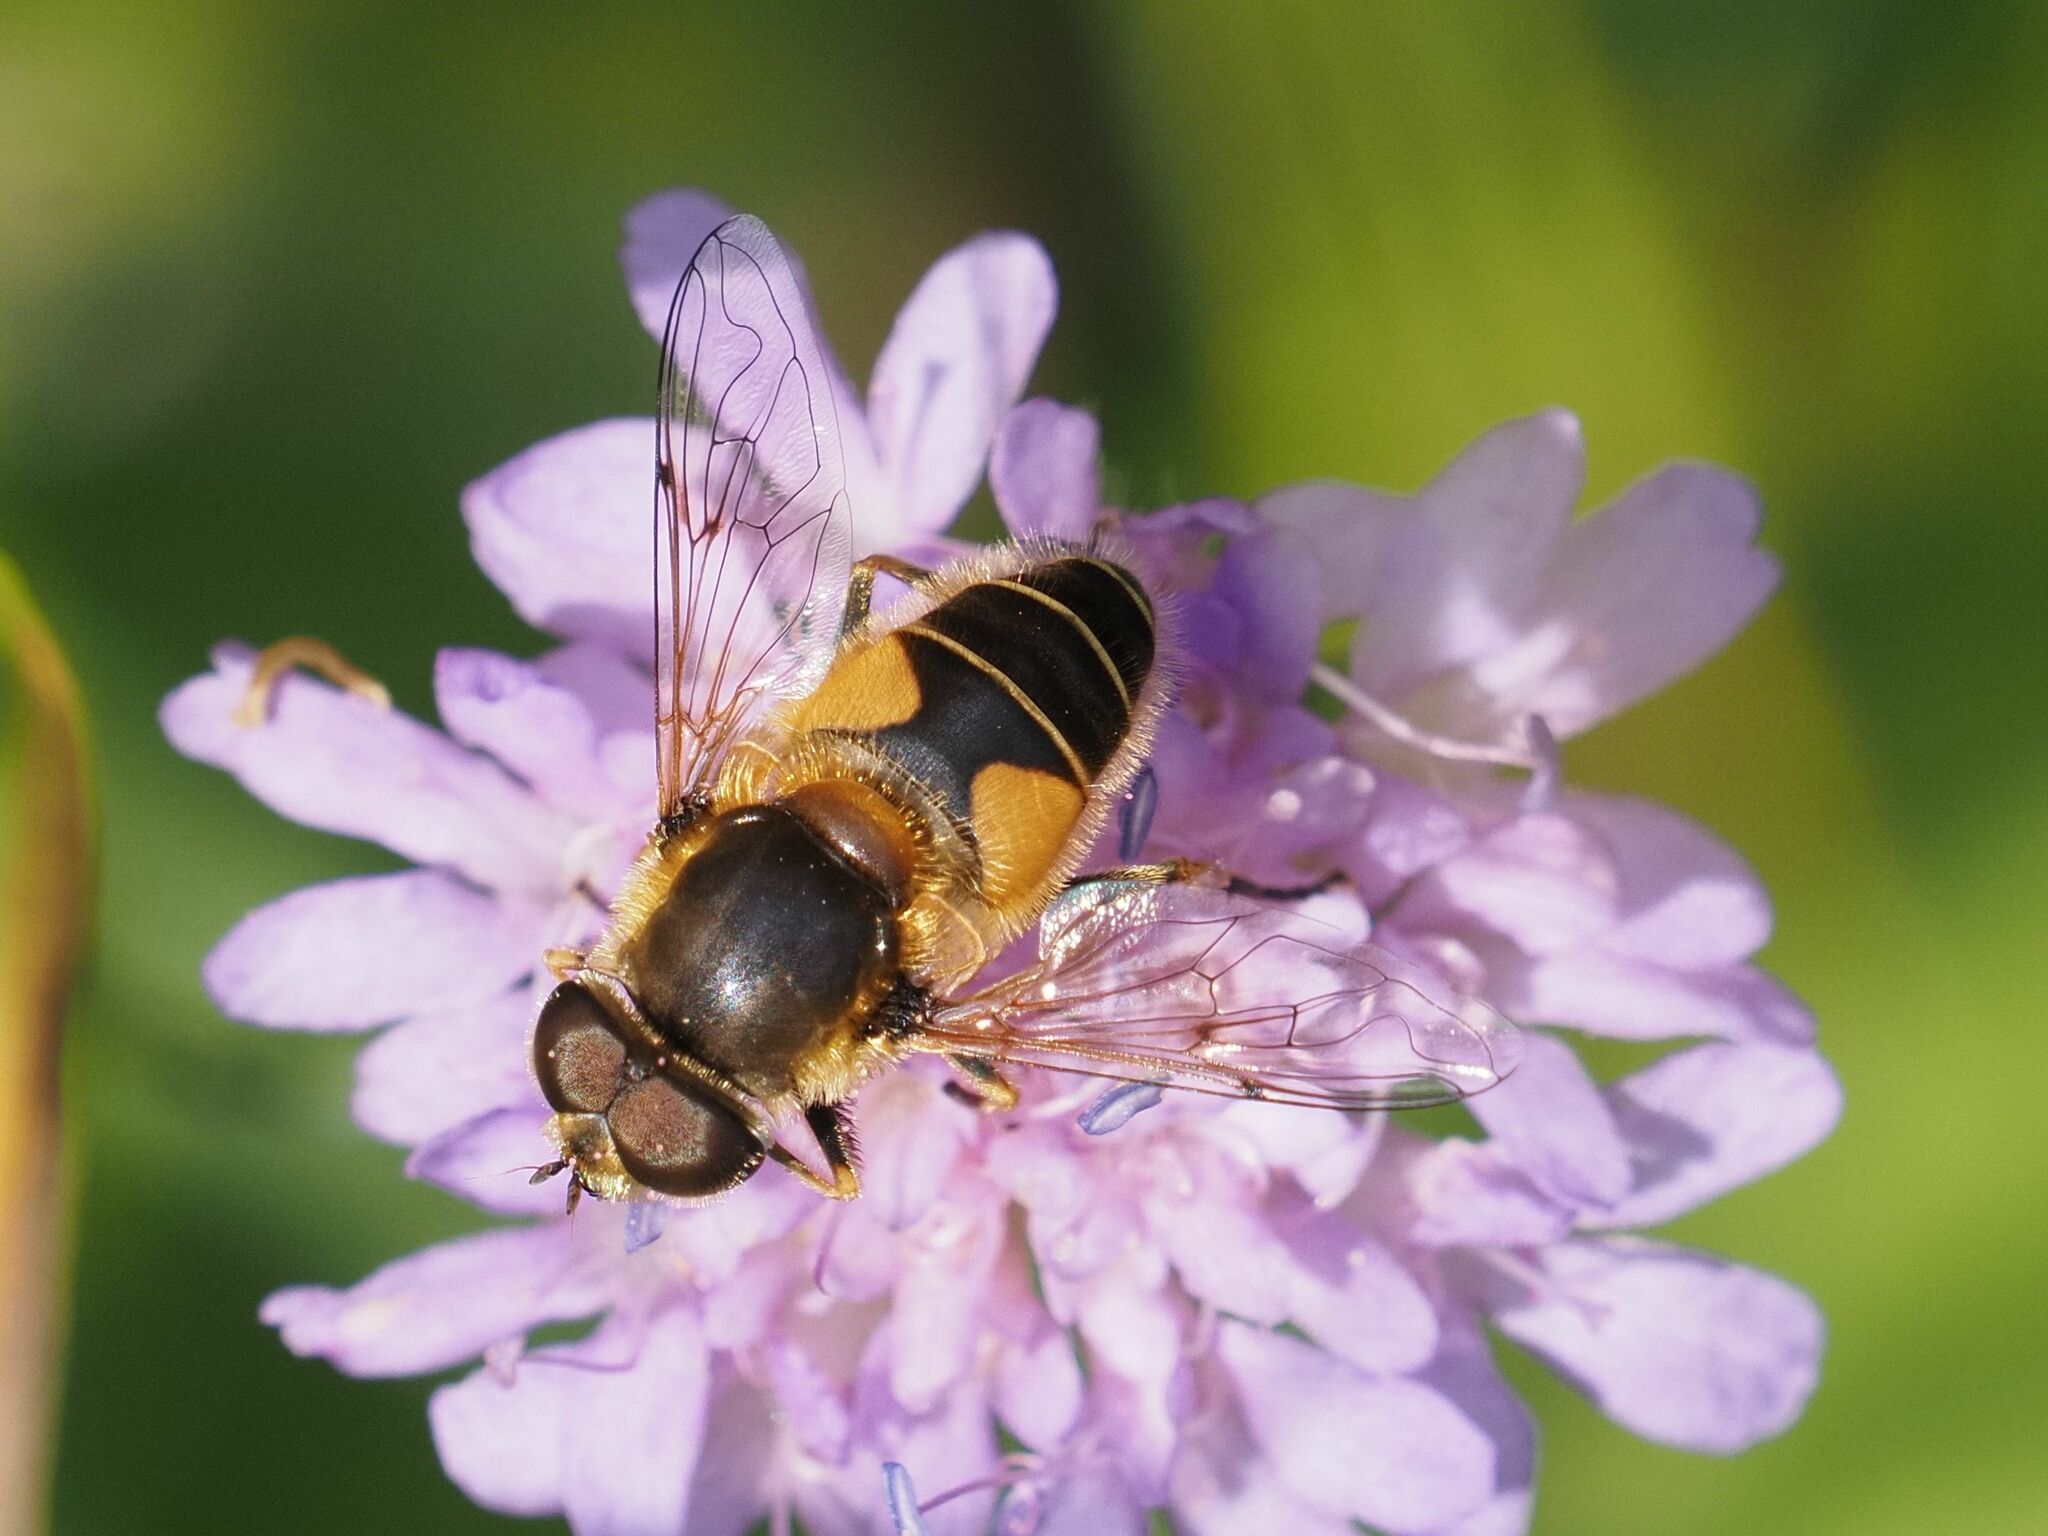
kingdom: Animalia
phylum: Arthropoda
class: Insecta
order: Diptera
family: Syrphidae
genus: Eristalis
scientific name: Eristalis jugorum
